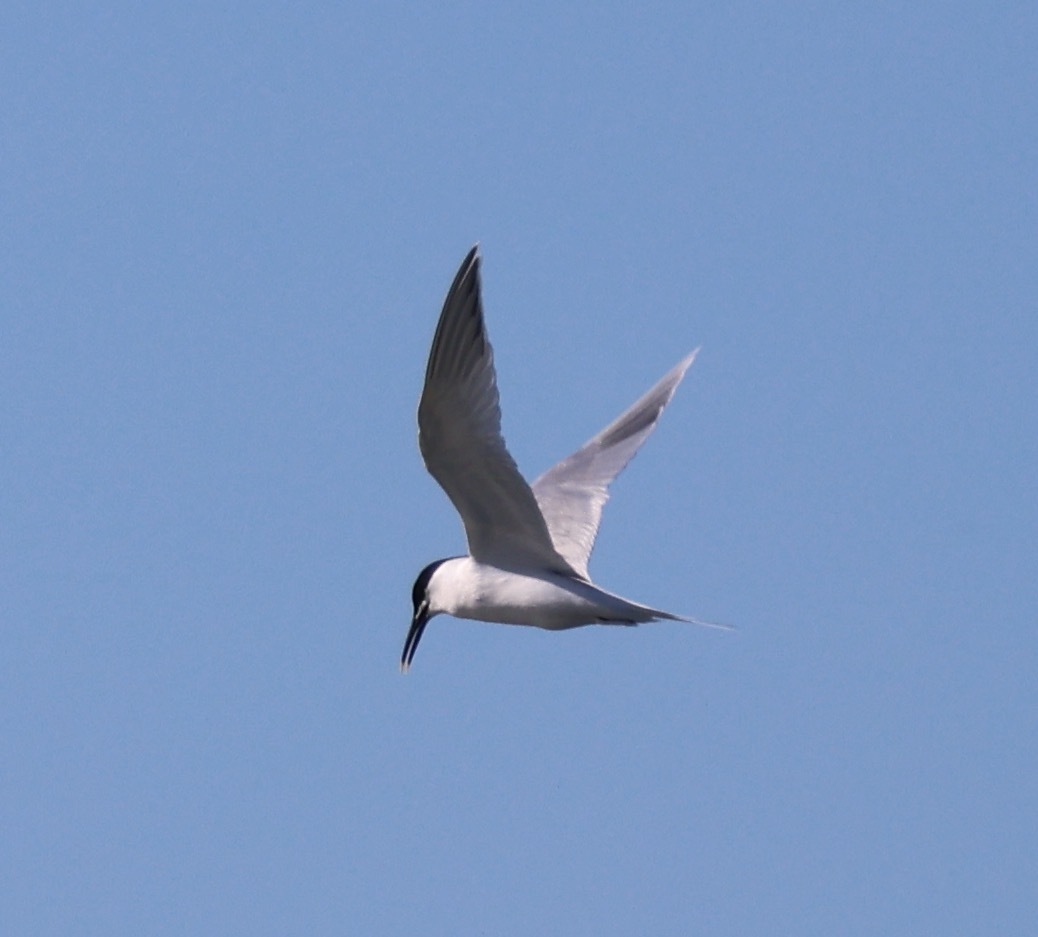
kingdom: Animalia
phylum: Chordata
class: Aves
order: Charadriiformes
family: Laridae
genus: Thalasseus
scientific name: Thalasseus sandvicensis
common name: Sandwich tern
